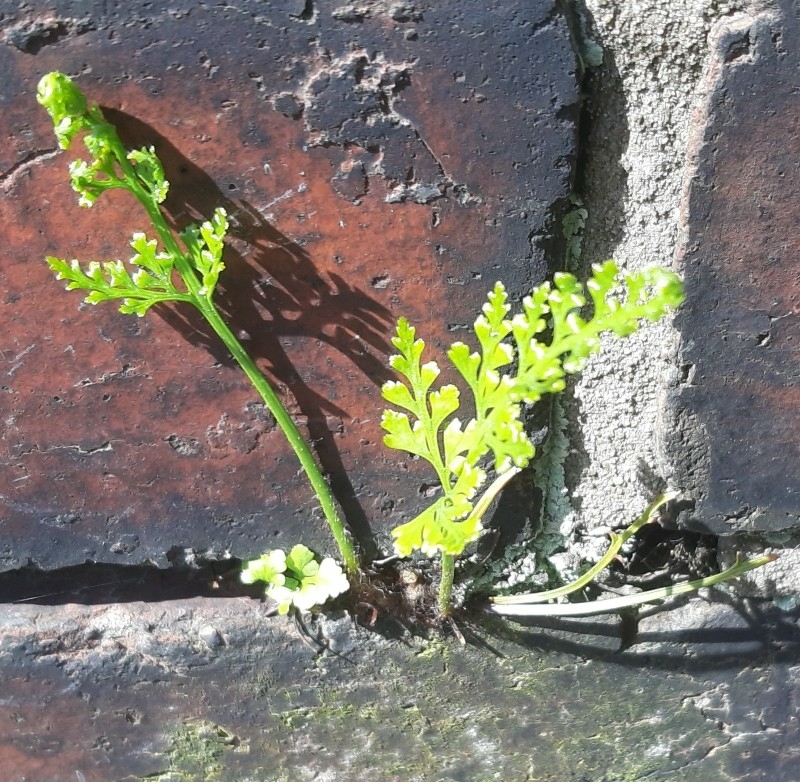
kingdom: Plantae
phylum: Tracheophyta
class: Polypodiopsida
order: Polypodiales
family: Aspleniaceae
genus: Asplenium
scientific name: Asplenium adiantum-nigrum
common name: Black spleenwort
